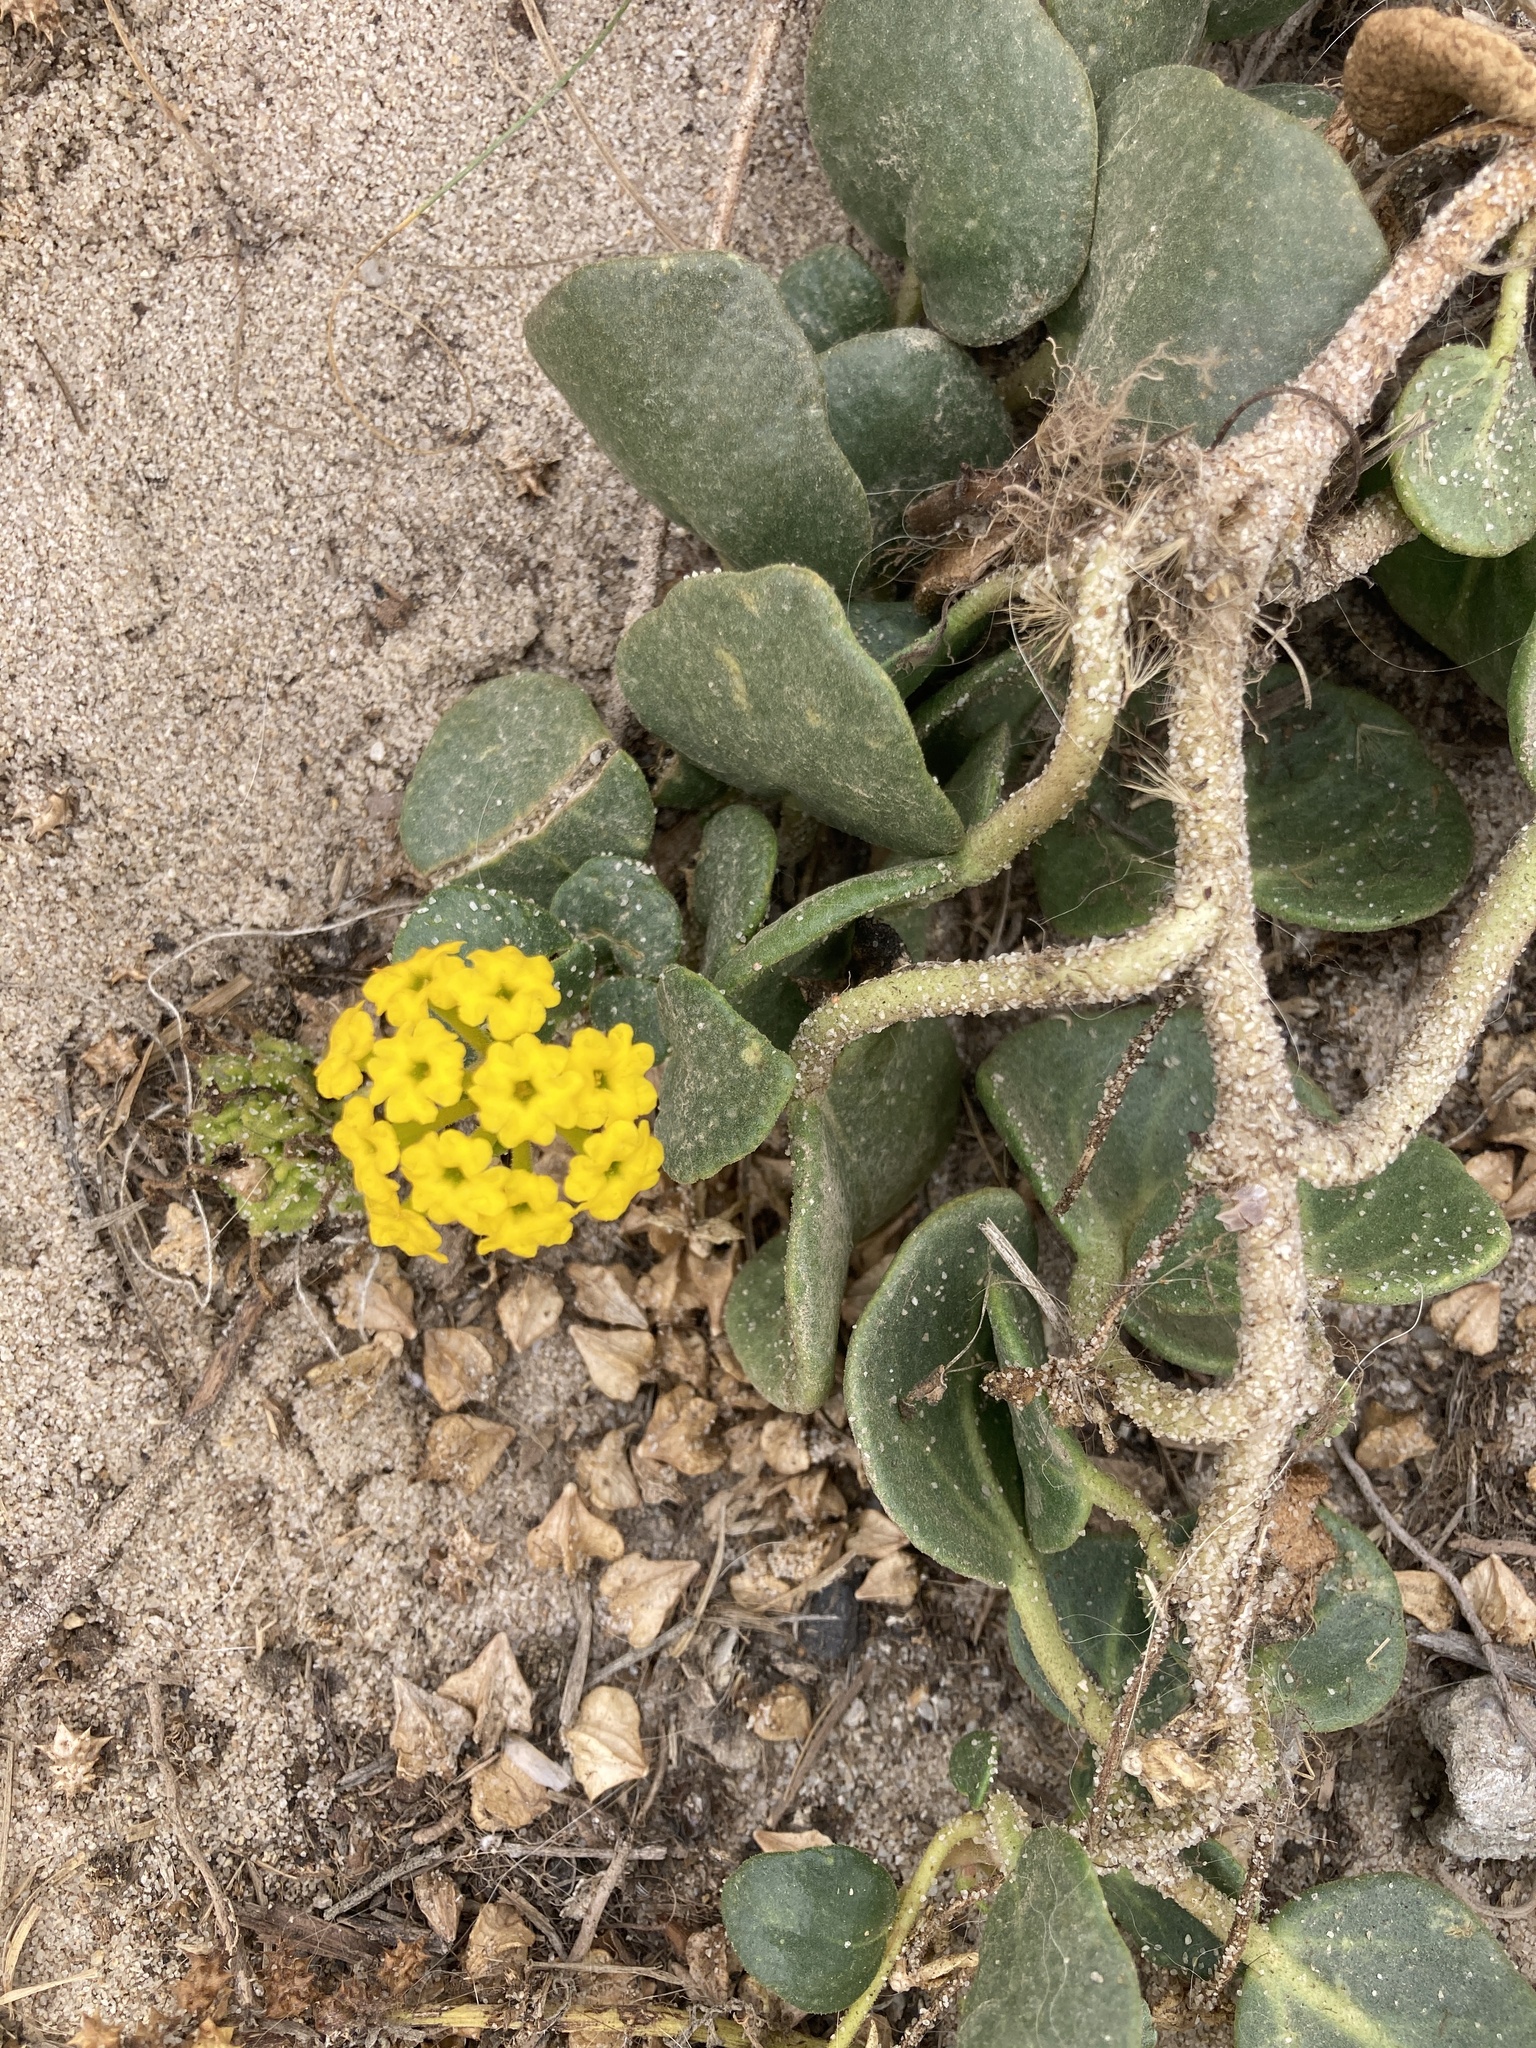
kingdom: Plantae
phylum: Tracheophyta
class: Magnoliopsida
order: Caryophyllales
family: Nyctaginaceae
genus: Abronia
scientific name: Abronia latifolia
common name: Yellow sand-verbena
